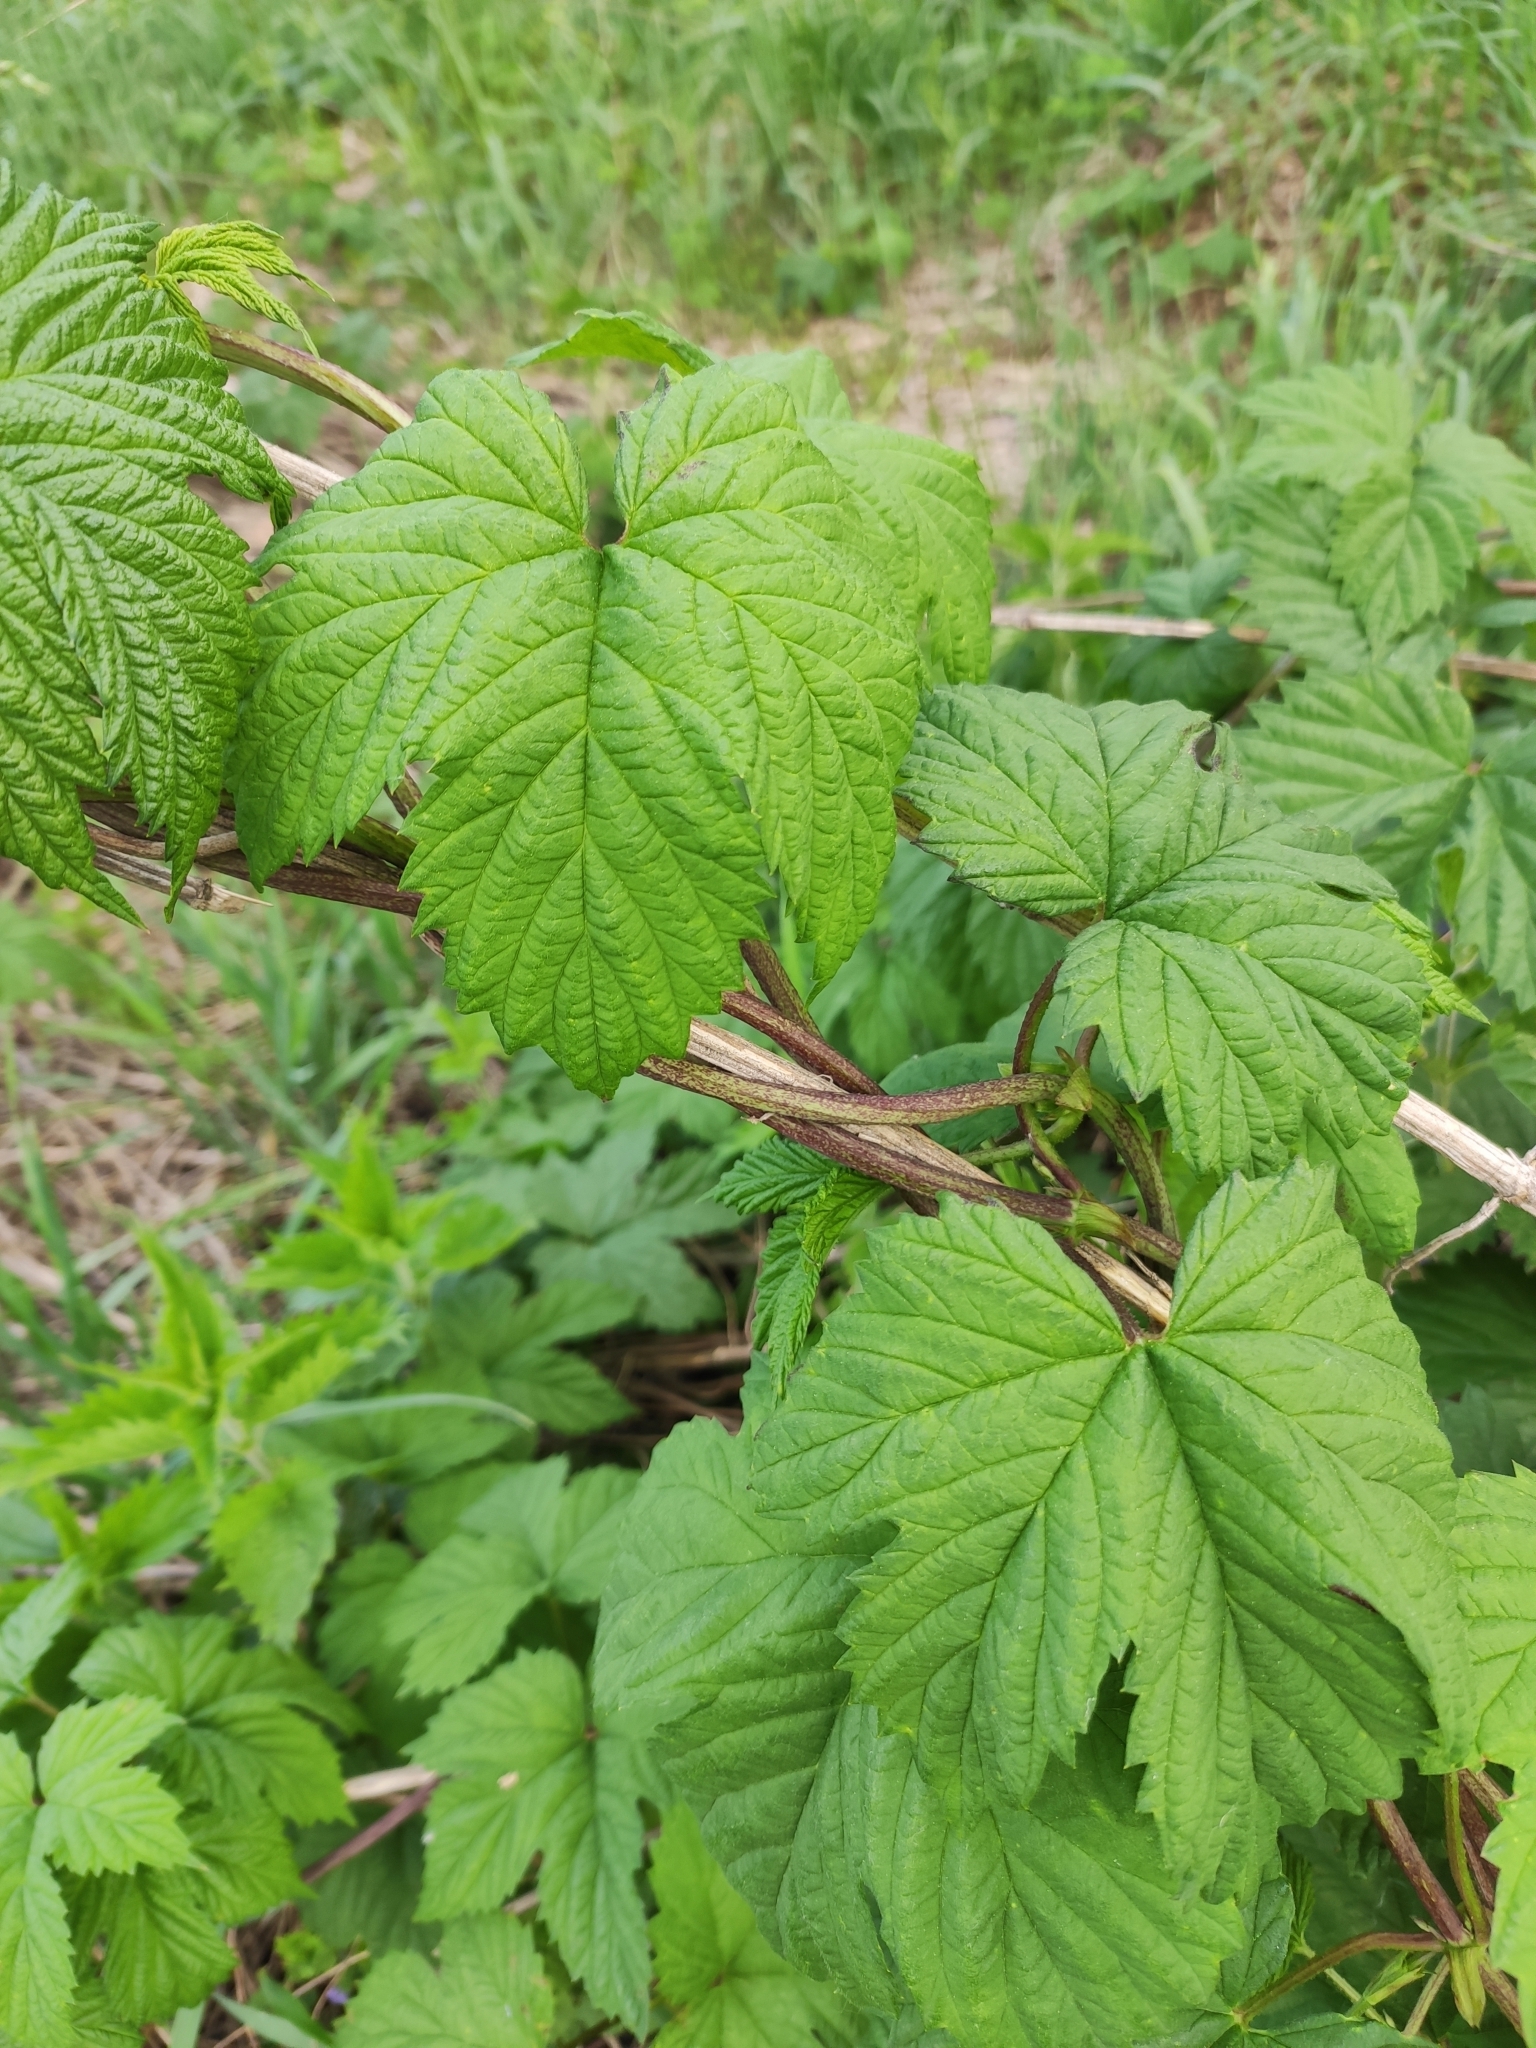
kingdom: Plantae
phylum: Tracheophyta
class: Magnoliopsida
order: Rosales
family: Cannabaceae
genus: Humulus
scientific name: Humulus lupulus
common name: Hop
